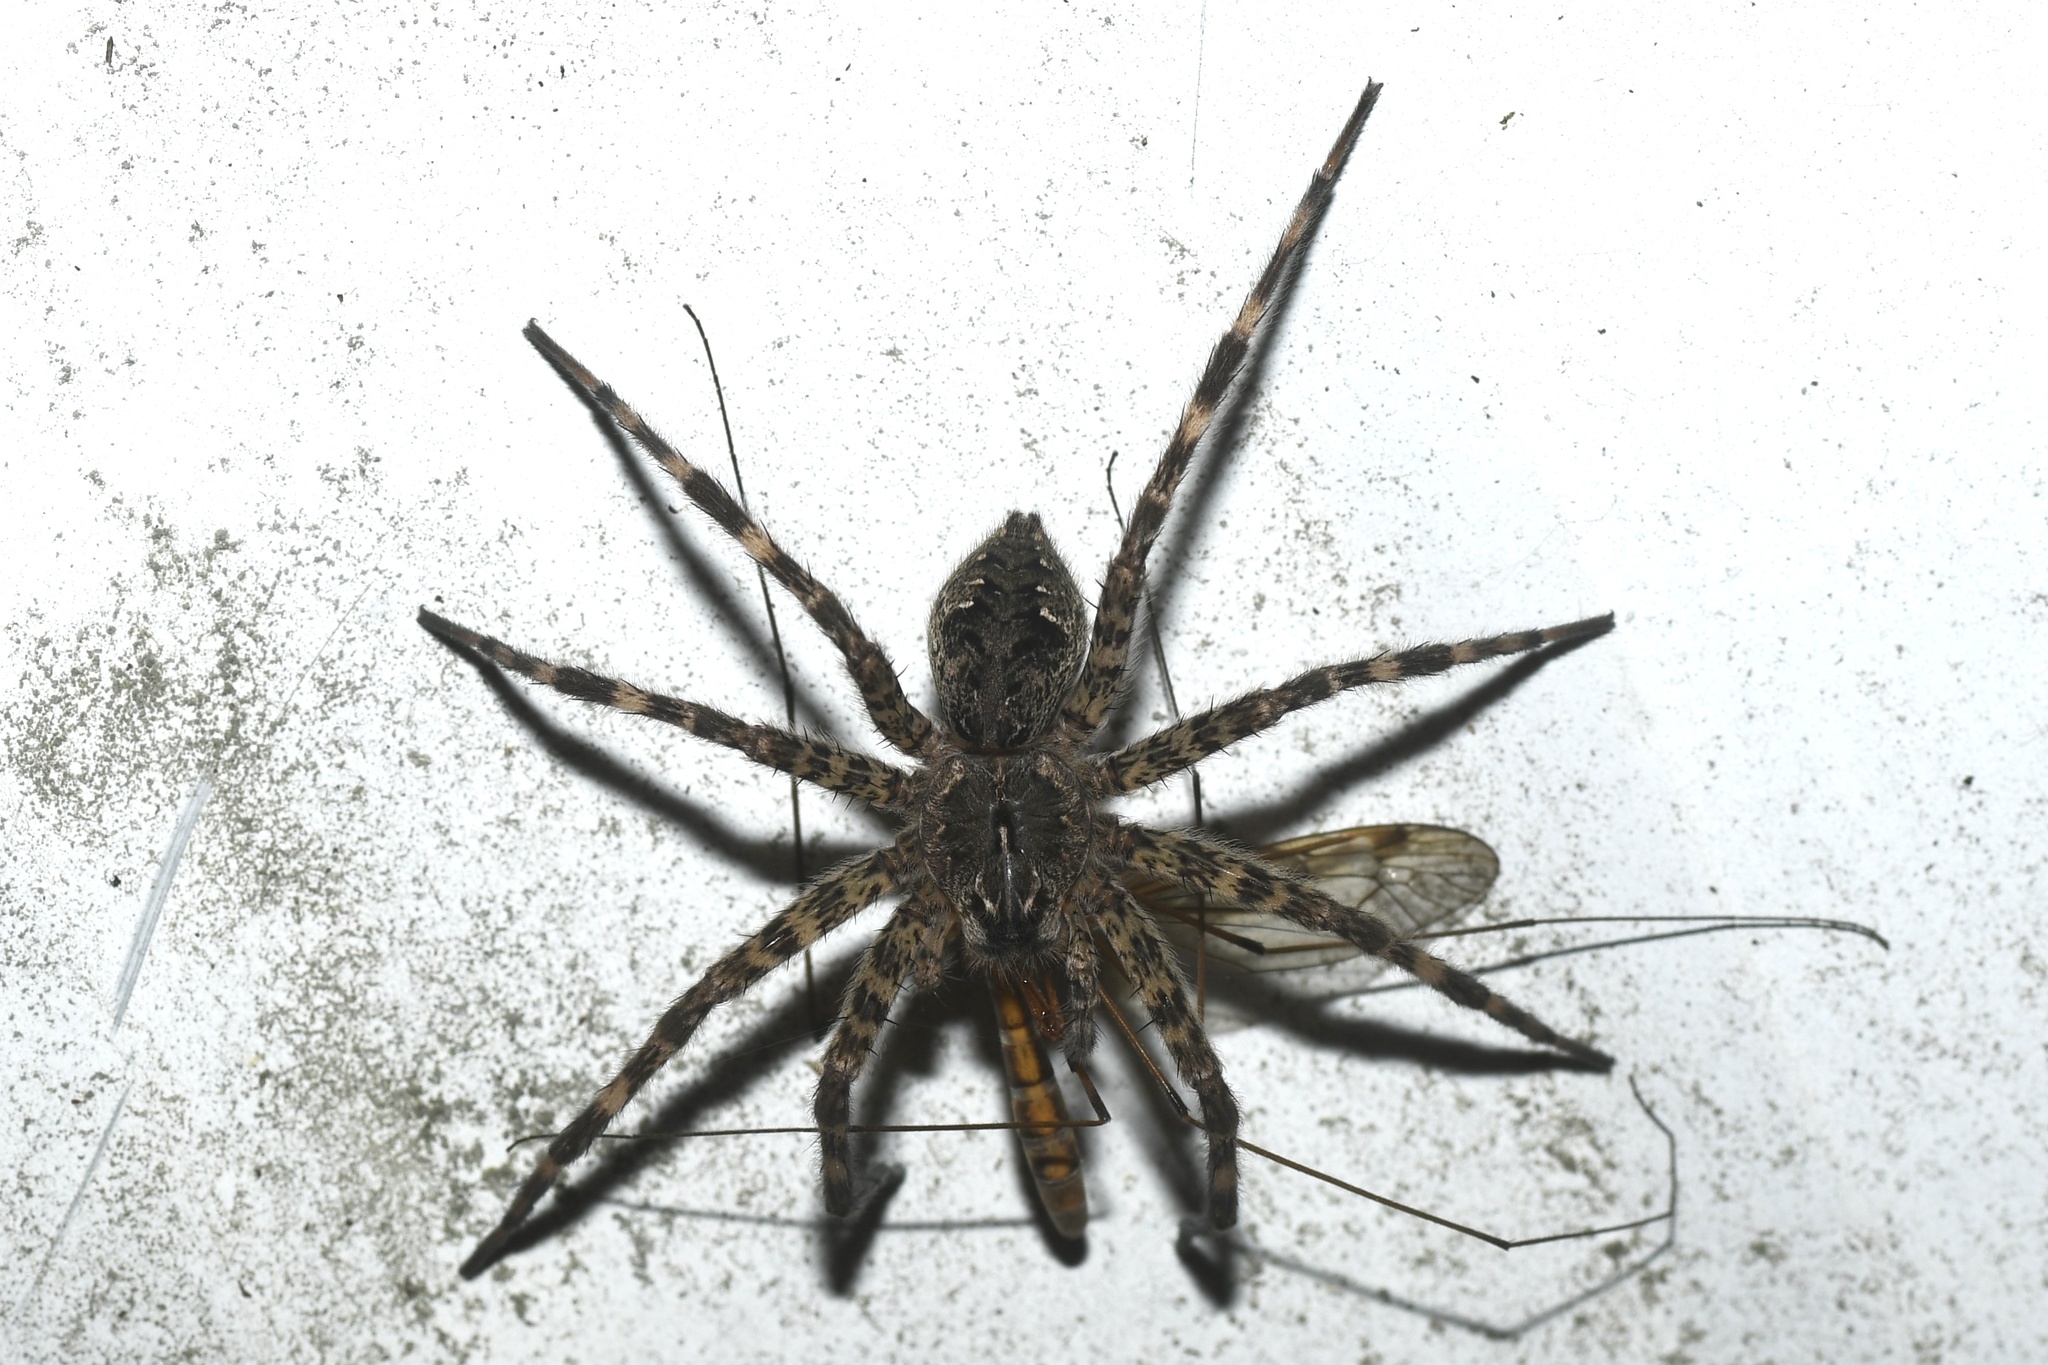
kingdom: Animalia
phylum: Arthropoda
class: Arachnida
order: Araneae
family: Pisauridae
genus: Dolomedes
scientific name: Dolomedes tenebrosus
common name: Dark fishing spider
